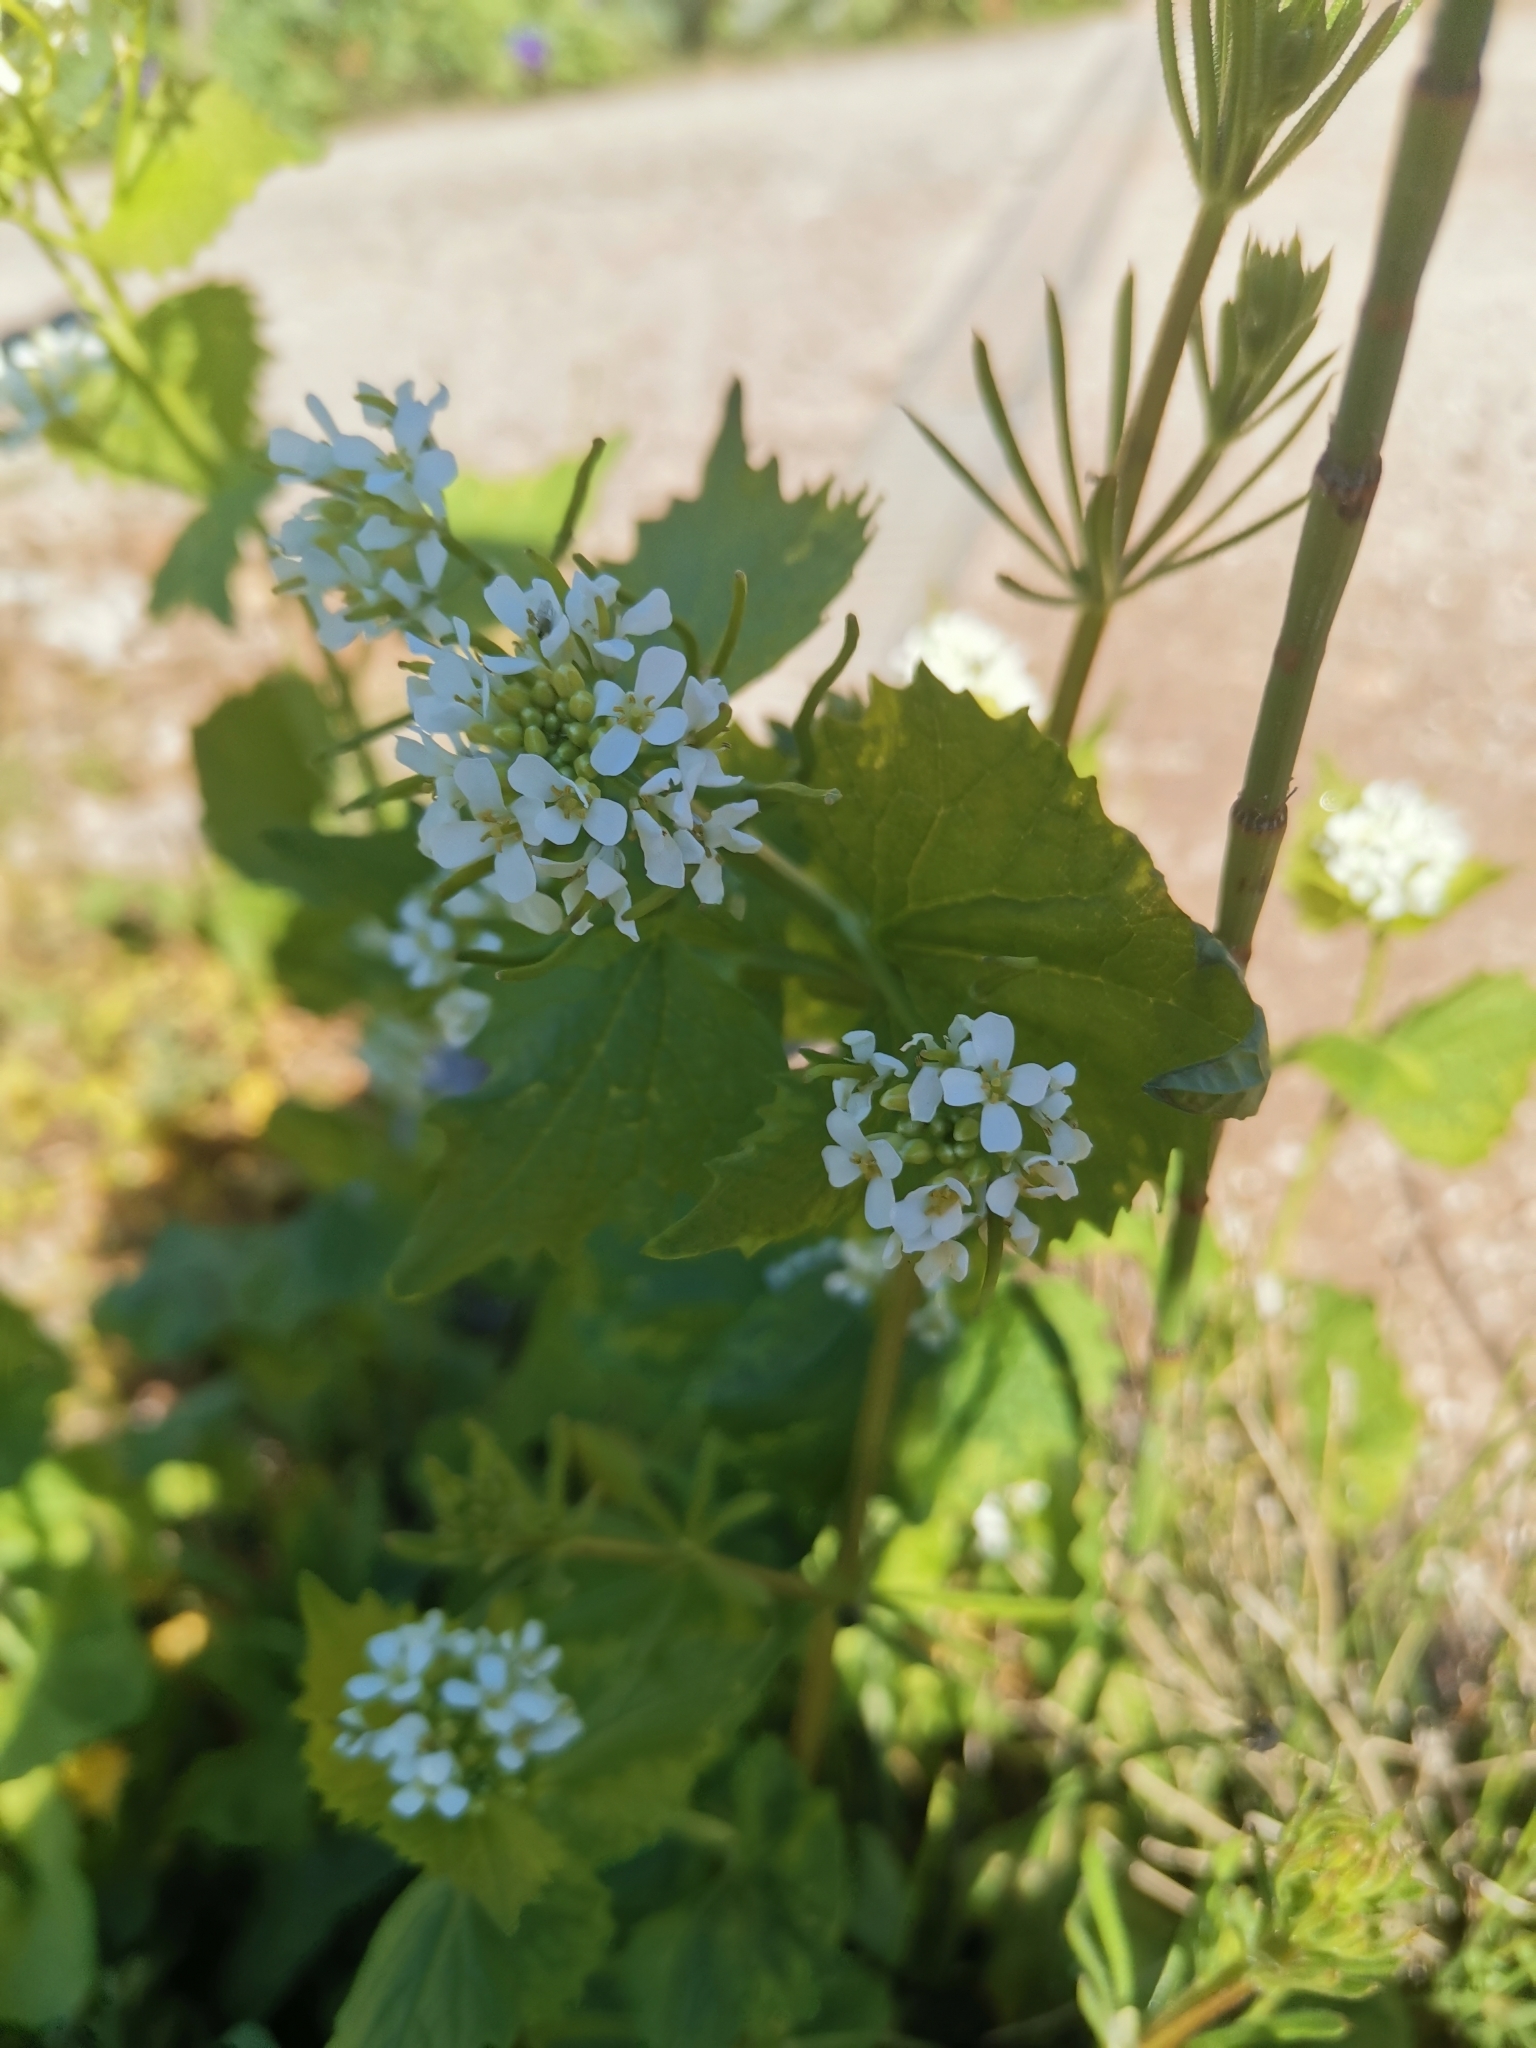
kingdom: Plantae
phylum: Tracheophyta
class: Magnoliopsida
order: Brassicales
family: Brassicaceae
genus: Alliaria
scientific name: Alliaria petiolata
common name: Garlic mustard
